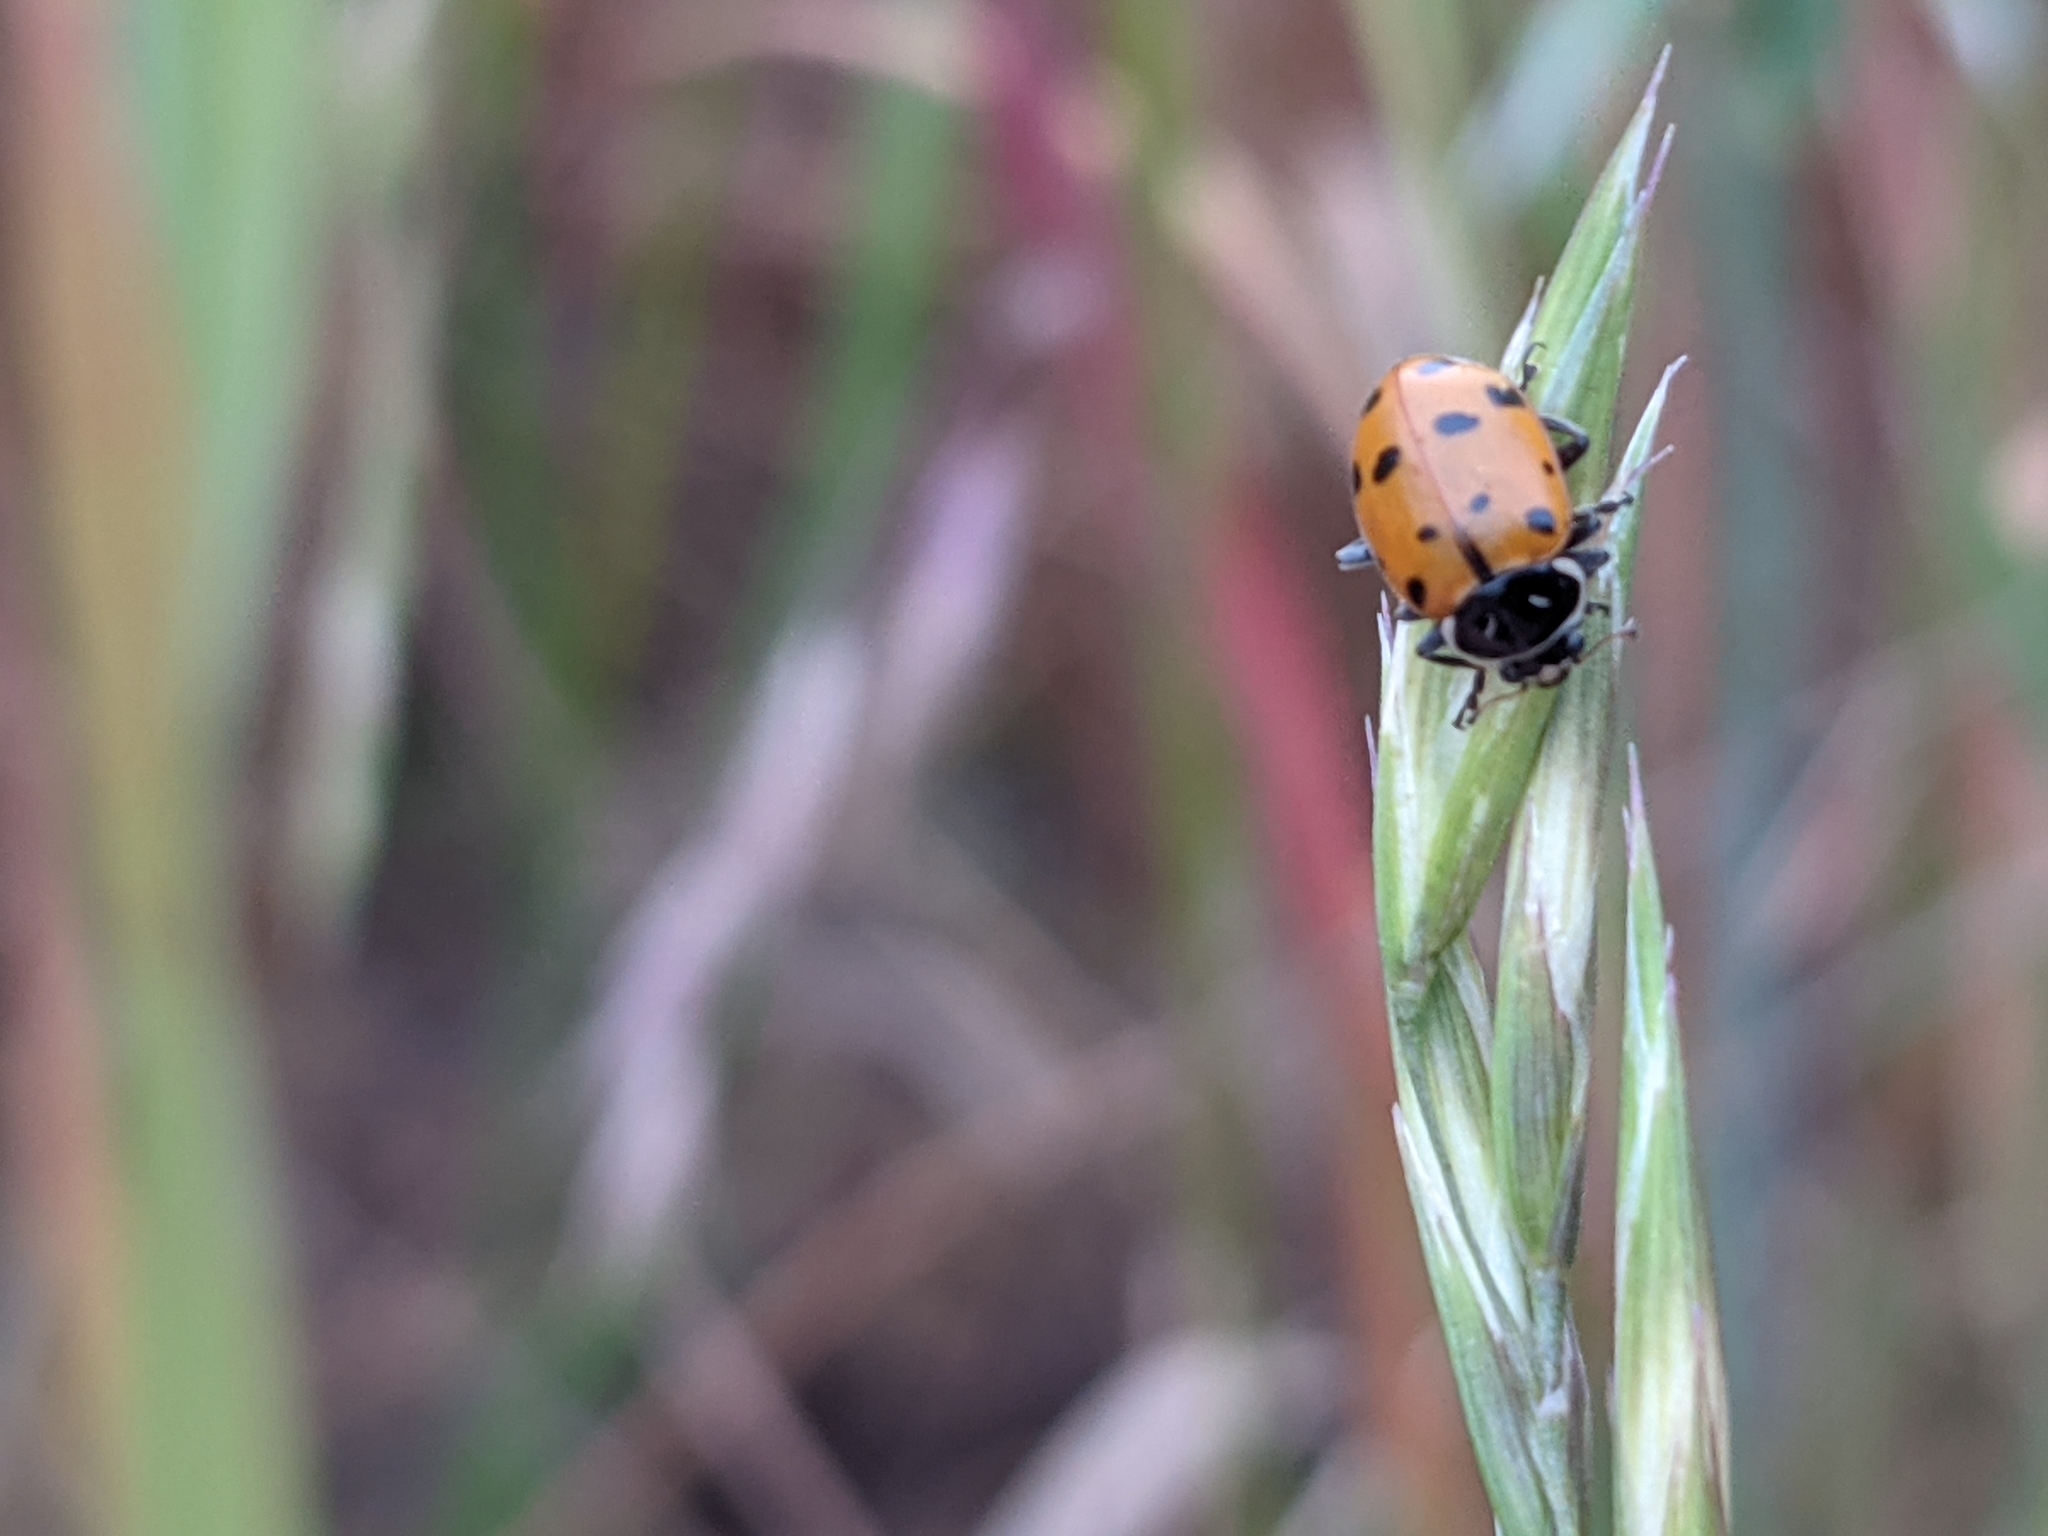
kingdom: Animalia
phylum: Arthropoda
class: Insecta
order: Coleoptera
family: Coccinellidae
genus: Hippodamia
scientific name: Hippodamia convergens
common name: Convergent lady beetle
